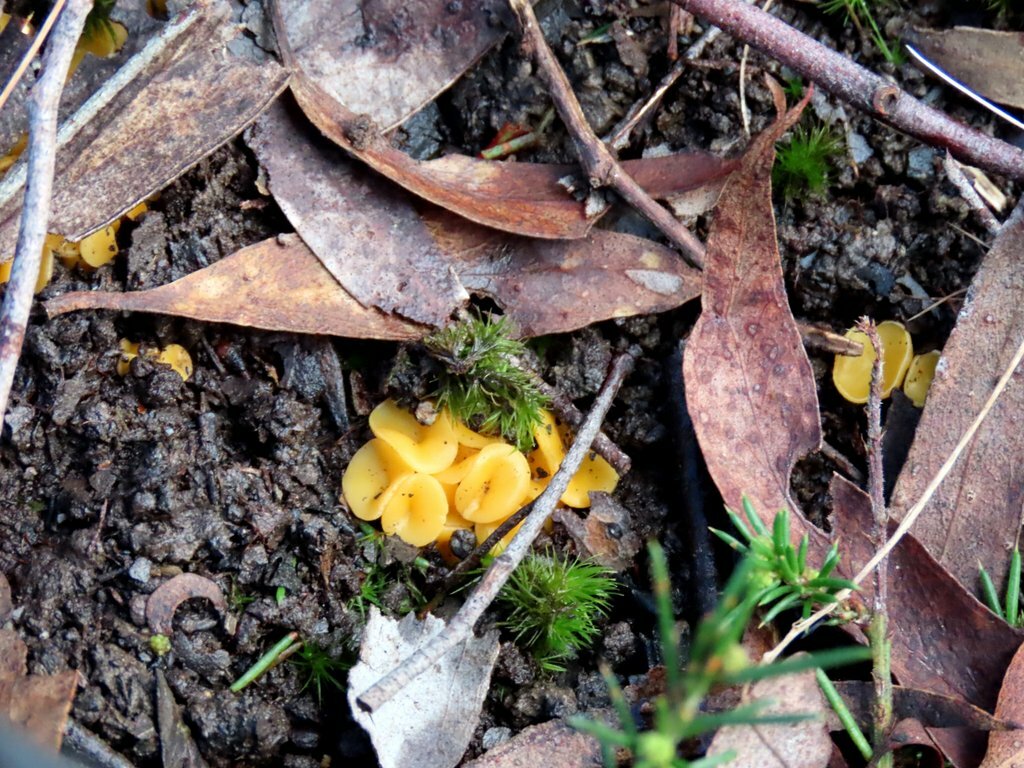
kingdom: Fungi
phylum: Ascomycota
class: Leotiomycetes
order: Helotiales
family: Helotiaceae
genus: Phaeohelotium
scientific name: Phaeohelotium baileyanum
